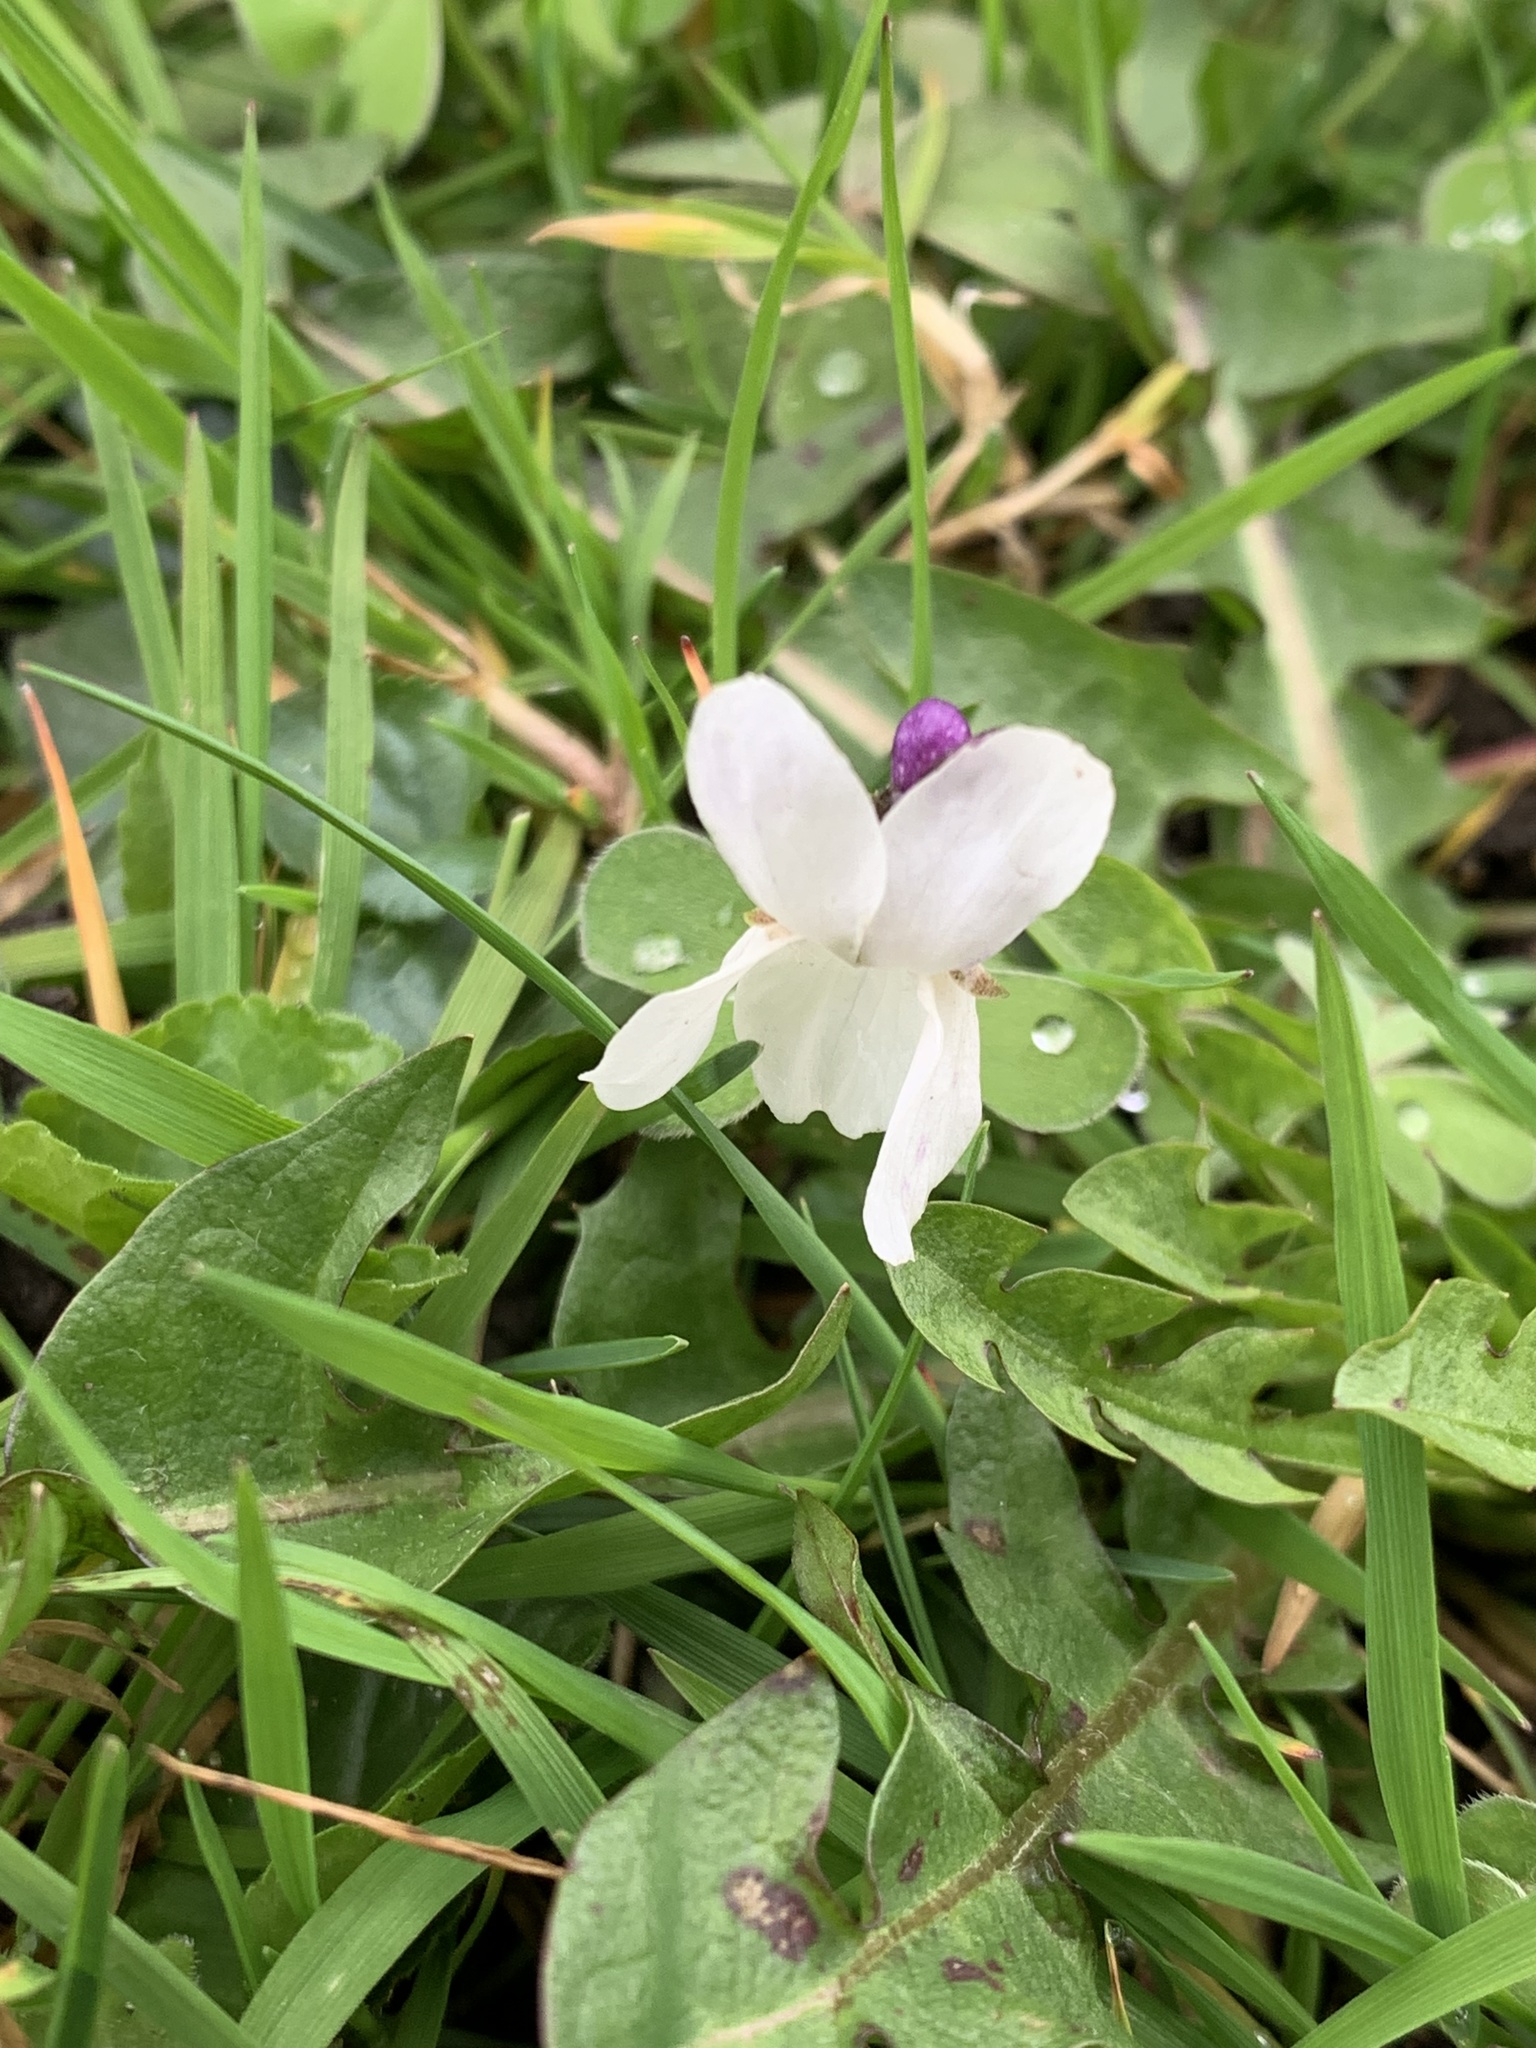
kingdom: Plantae
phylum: Tracheophyta
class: Magnoliopsida
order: Malpighiales
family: Violaceae
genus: Viola
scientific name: Viola odorata
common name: Sweet violet
